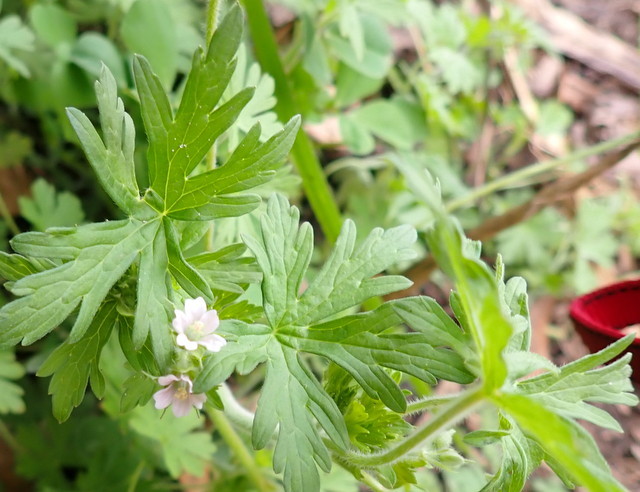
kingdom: Plantae
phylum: Tracheophyta
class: Magnoliopsida
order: Geraniales
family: Geraniaceae
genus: Geranium
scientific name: Geranium carolinianum
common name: Carolina crane's-bill
